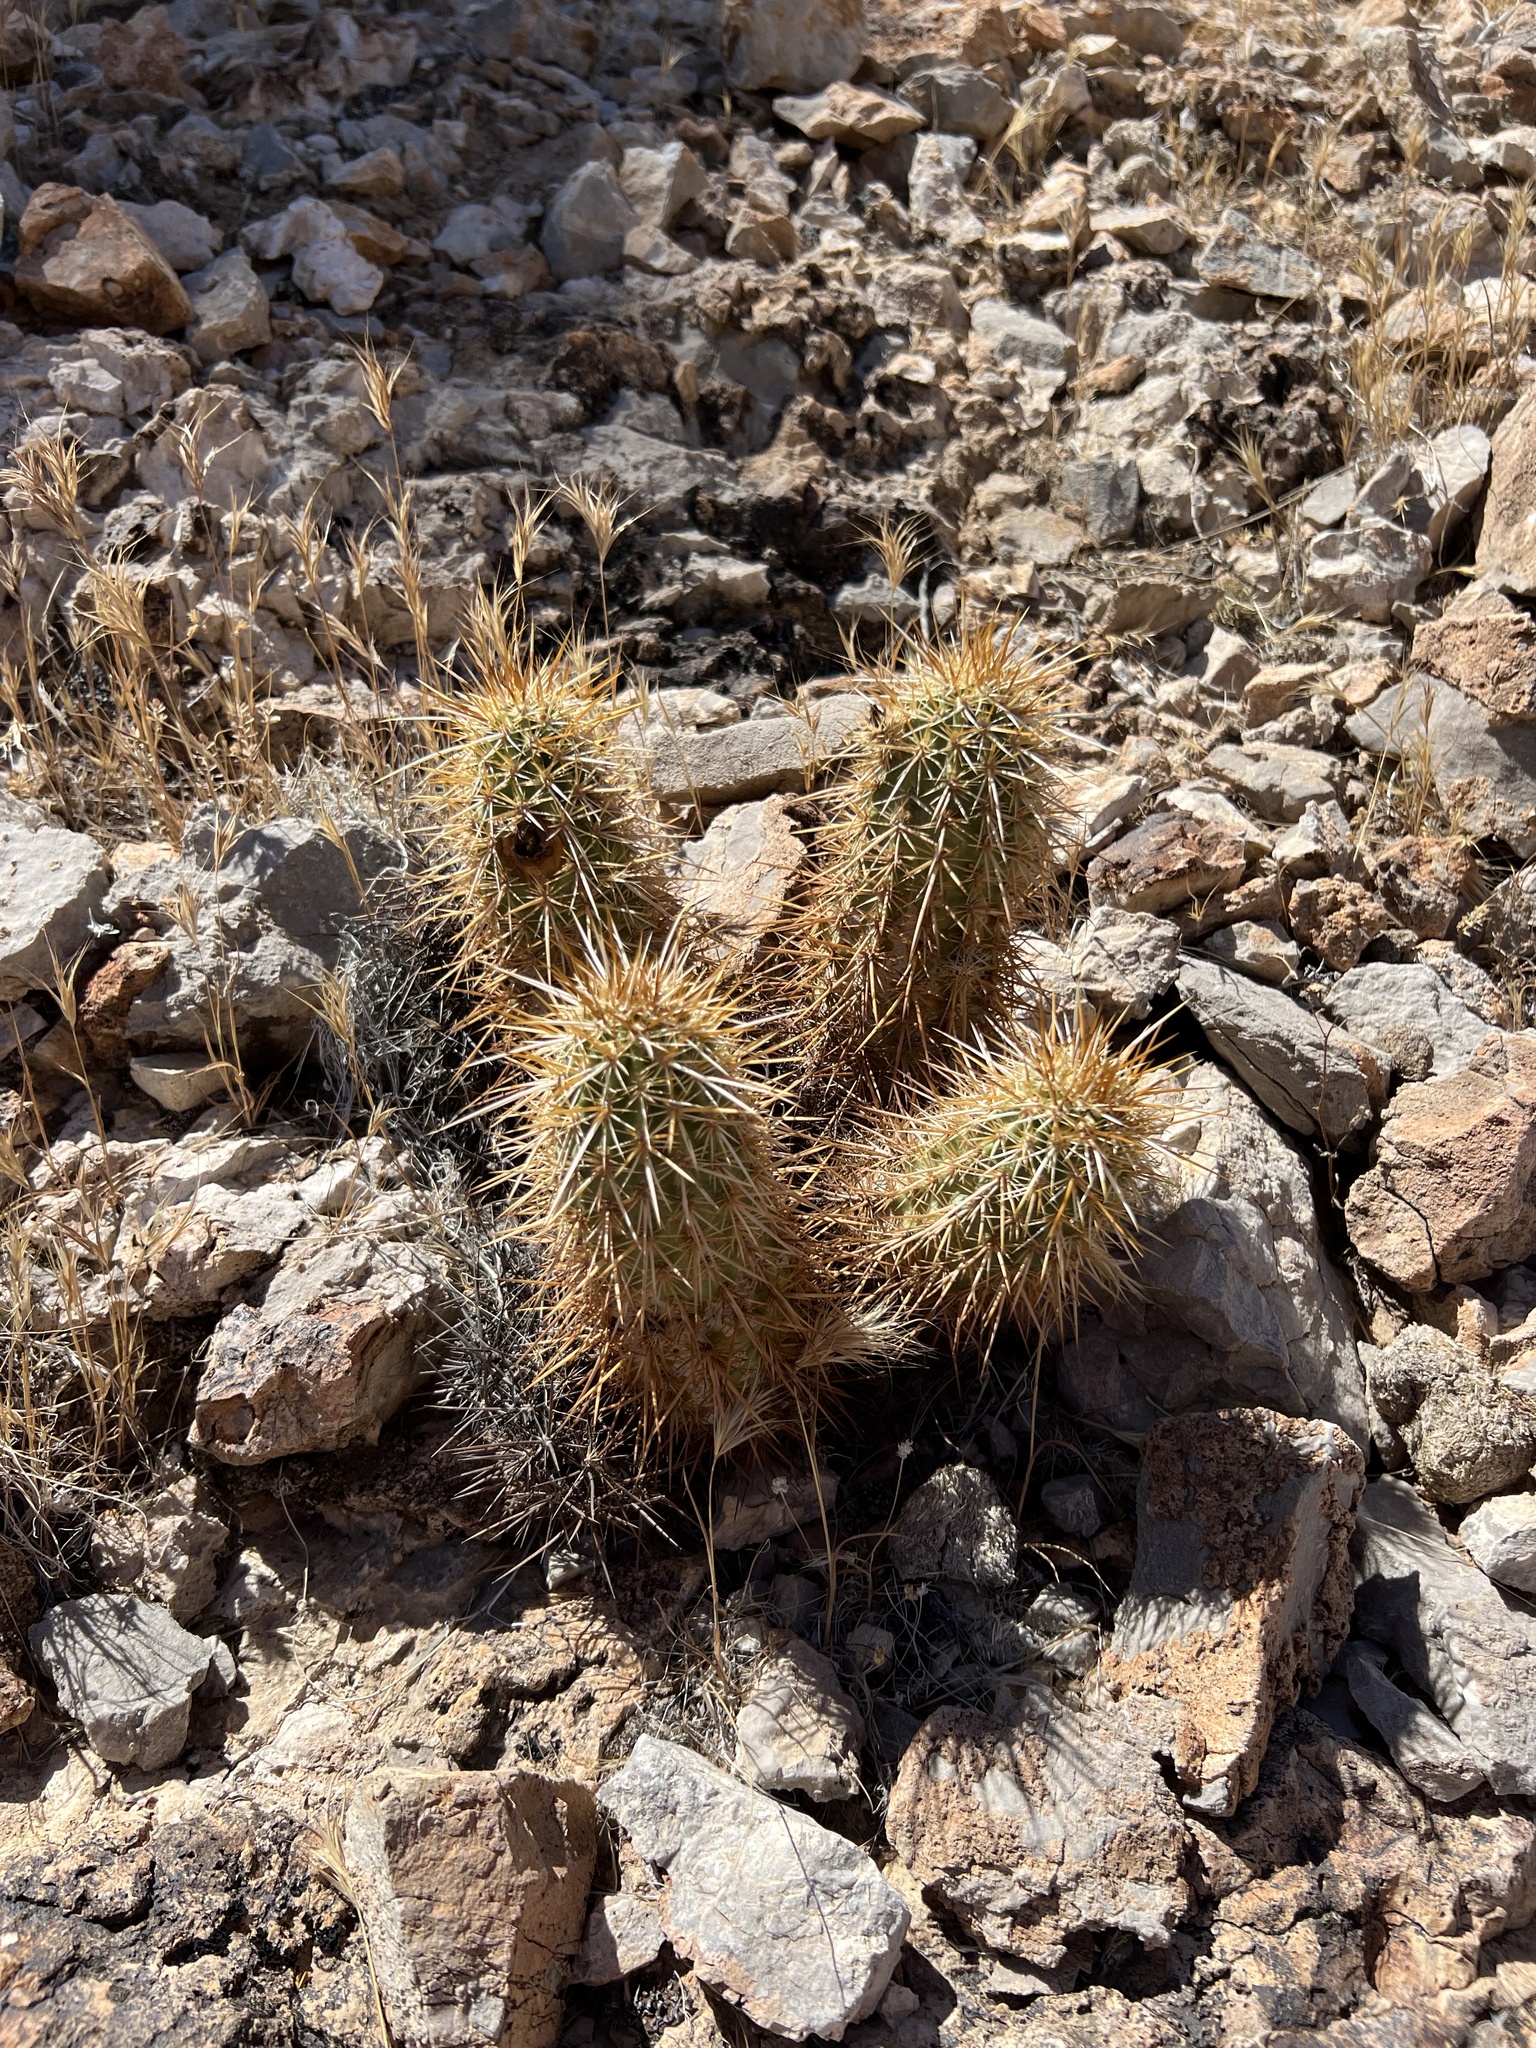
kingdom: Plantae
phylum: Tracheophyta
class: Magnoliopsida
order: Caryophyllales
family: Cactaceae
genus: Echinocereus
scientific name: Echinocereus engelmannii
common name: Engelmann's hedgehog cactus
